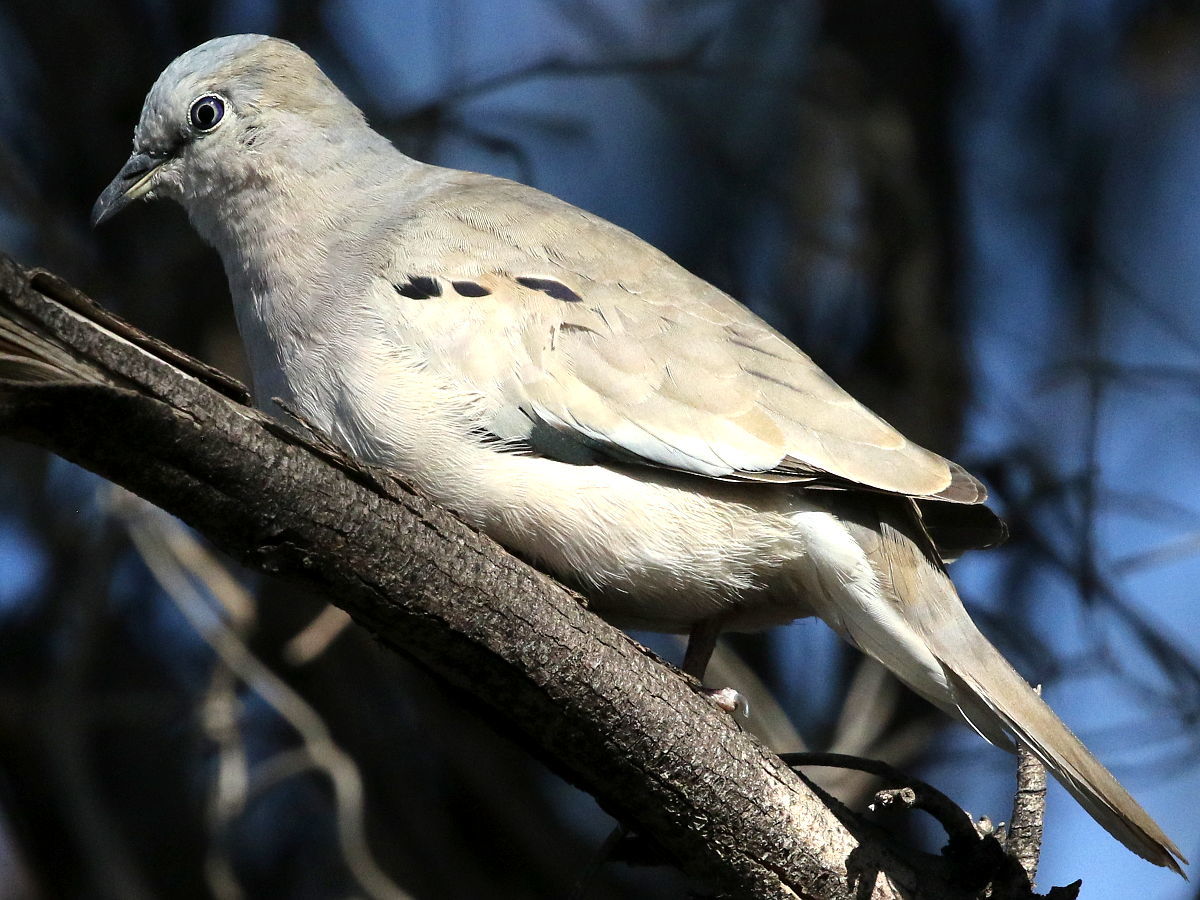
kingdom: Animalia
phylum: Chordata
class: Aves
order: Columbiformes
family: Columbidae
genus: Columbina
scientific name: Columbina picui
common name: Picui ground dove
